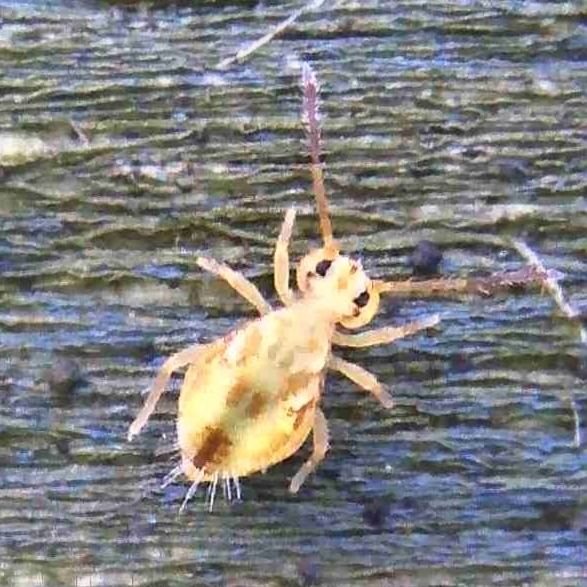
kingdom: Animalia
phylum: Arthropoda
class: Collembola
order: Symphypleona
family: Dicyrtomidae
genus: Dicyrtomina
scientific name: Dicyrtomina saundersi
